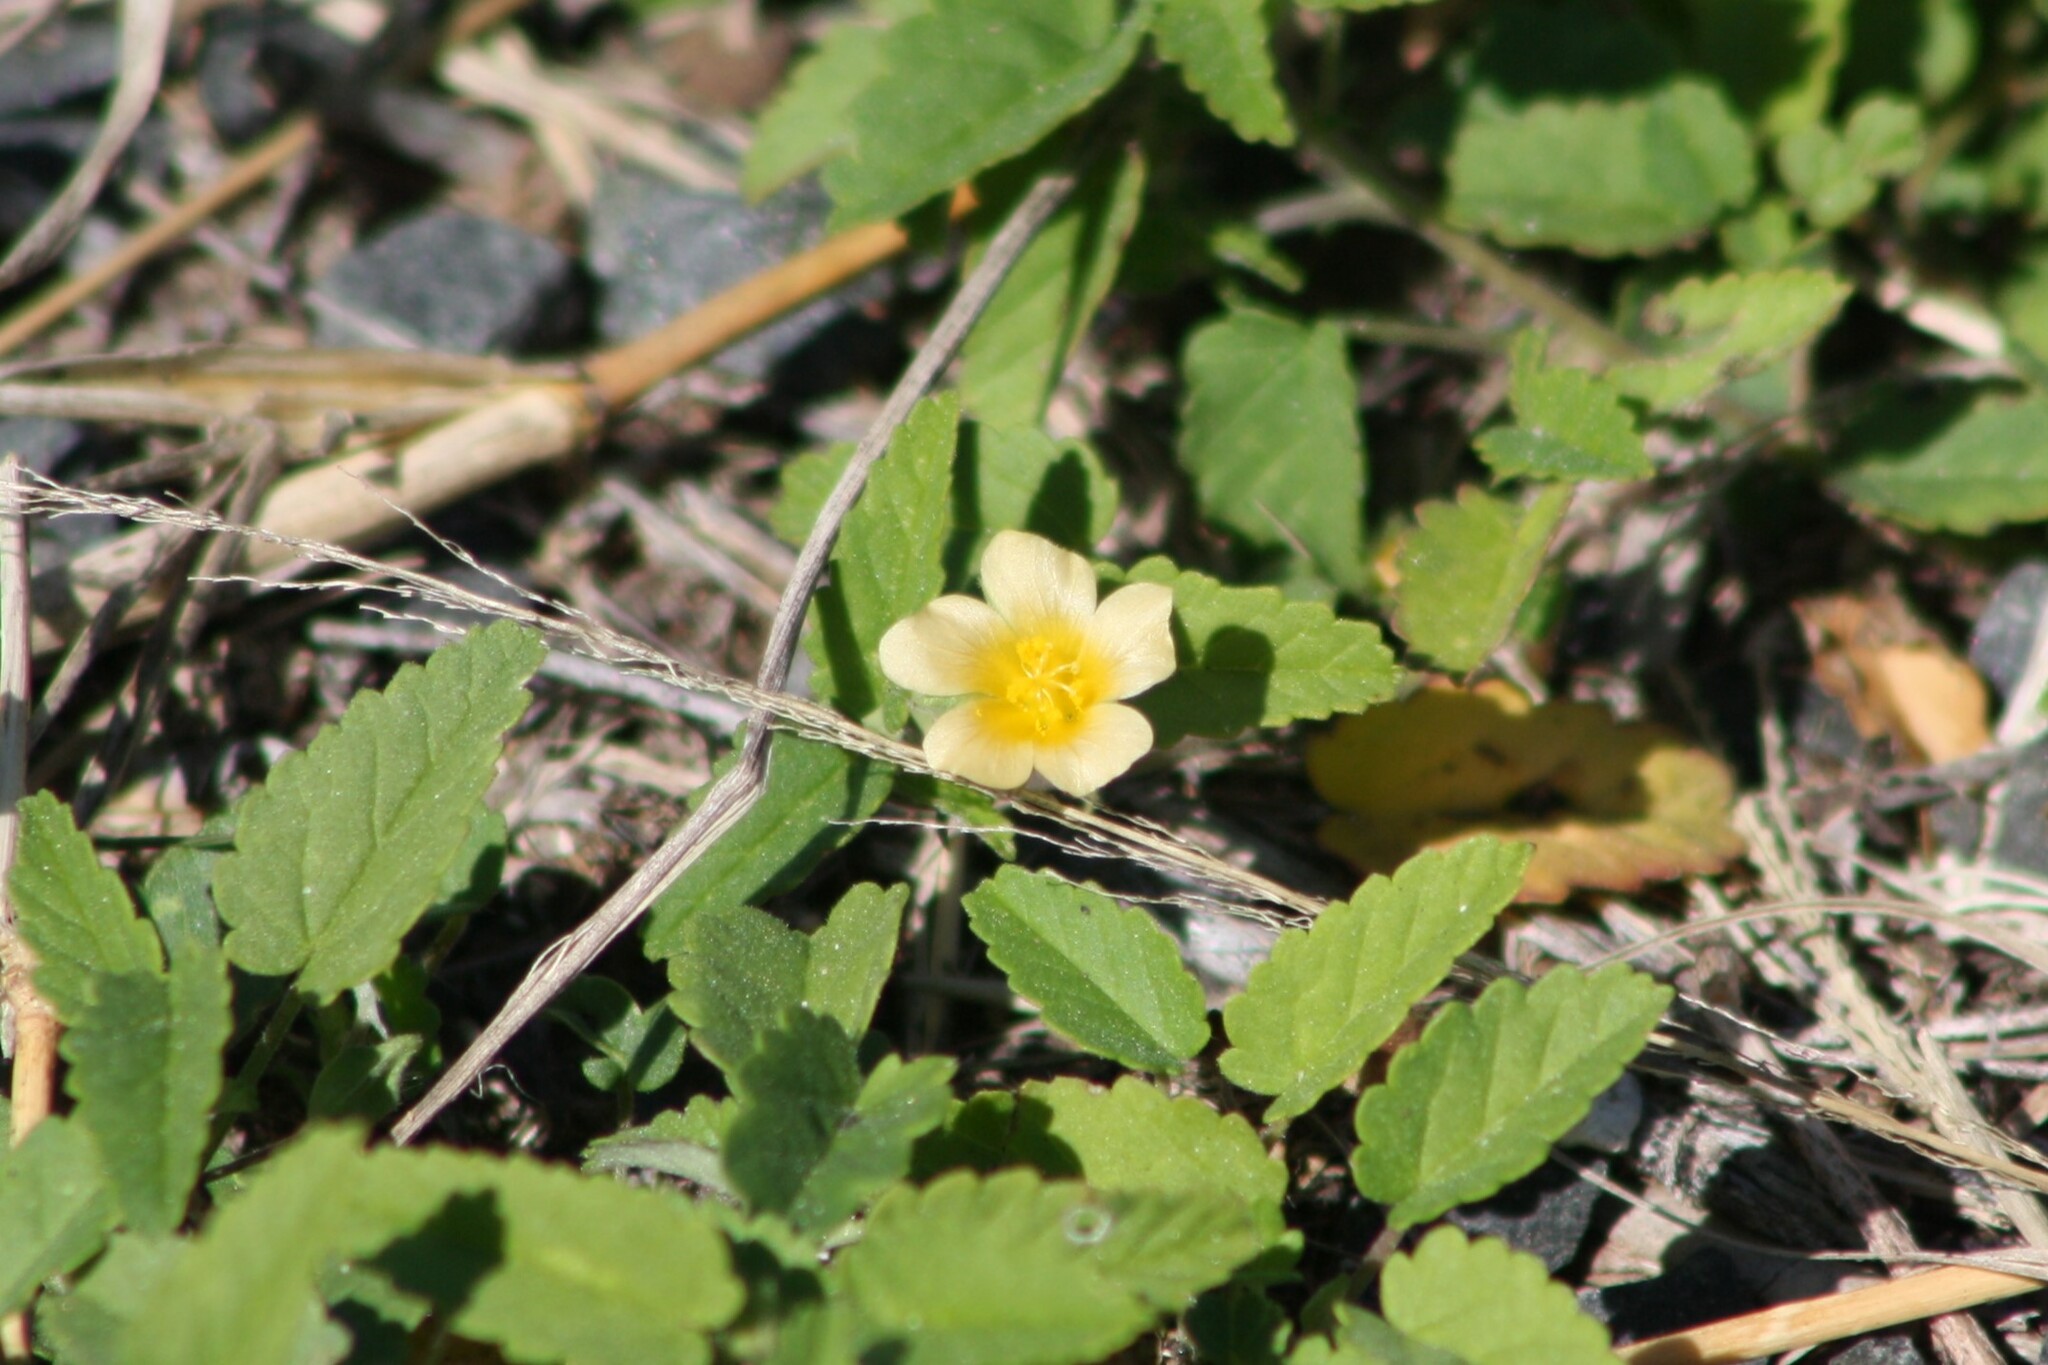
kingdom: Plantae
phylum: Tracheophyta
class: Magnoliopsida
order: Malvales
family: Malvaceae
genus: Sida
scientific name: Sida abutilifolia
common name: Spreading fanpetals
